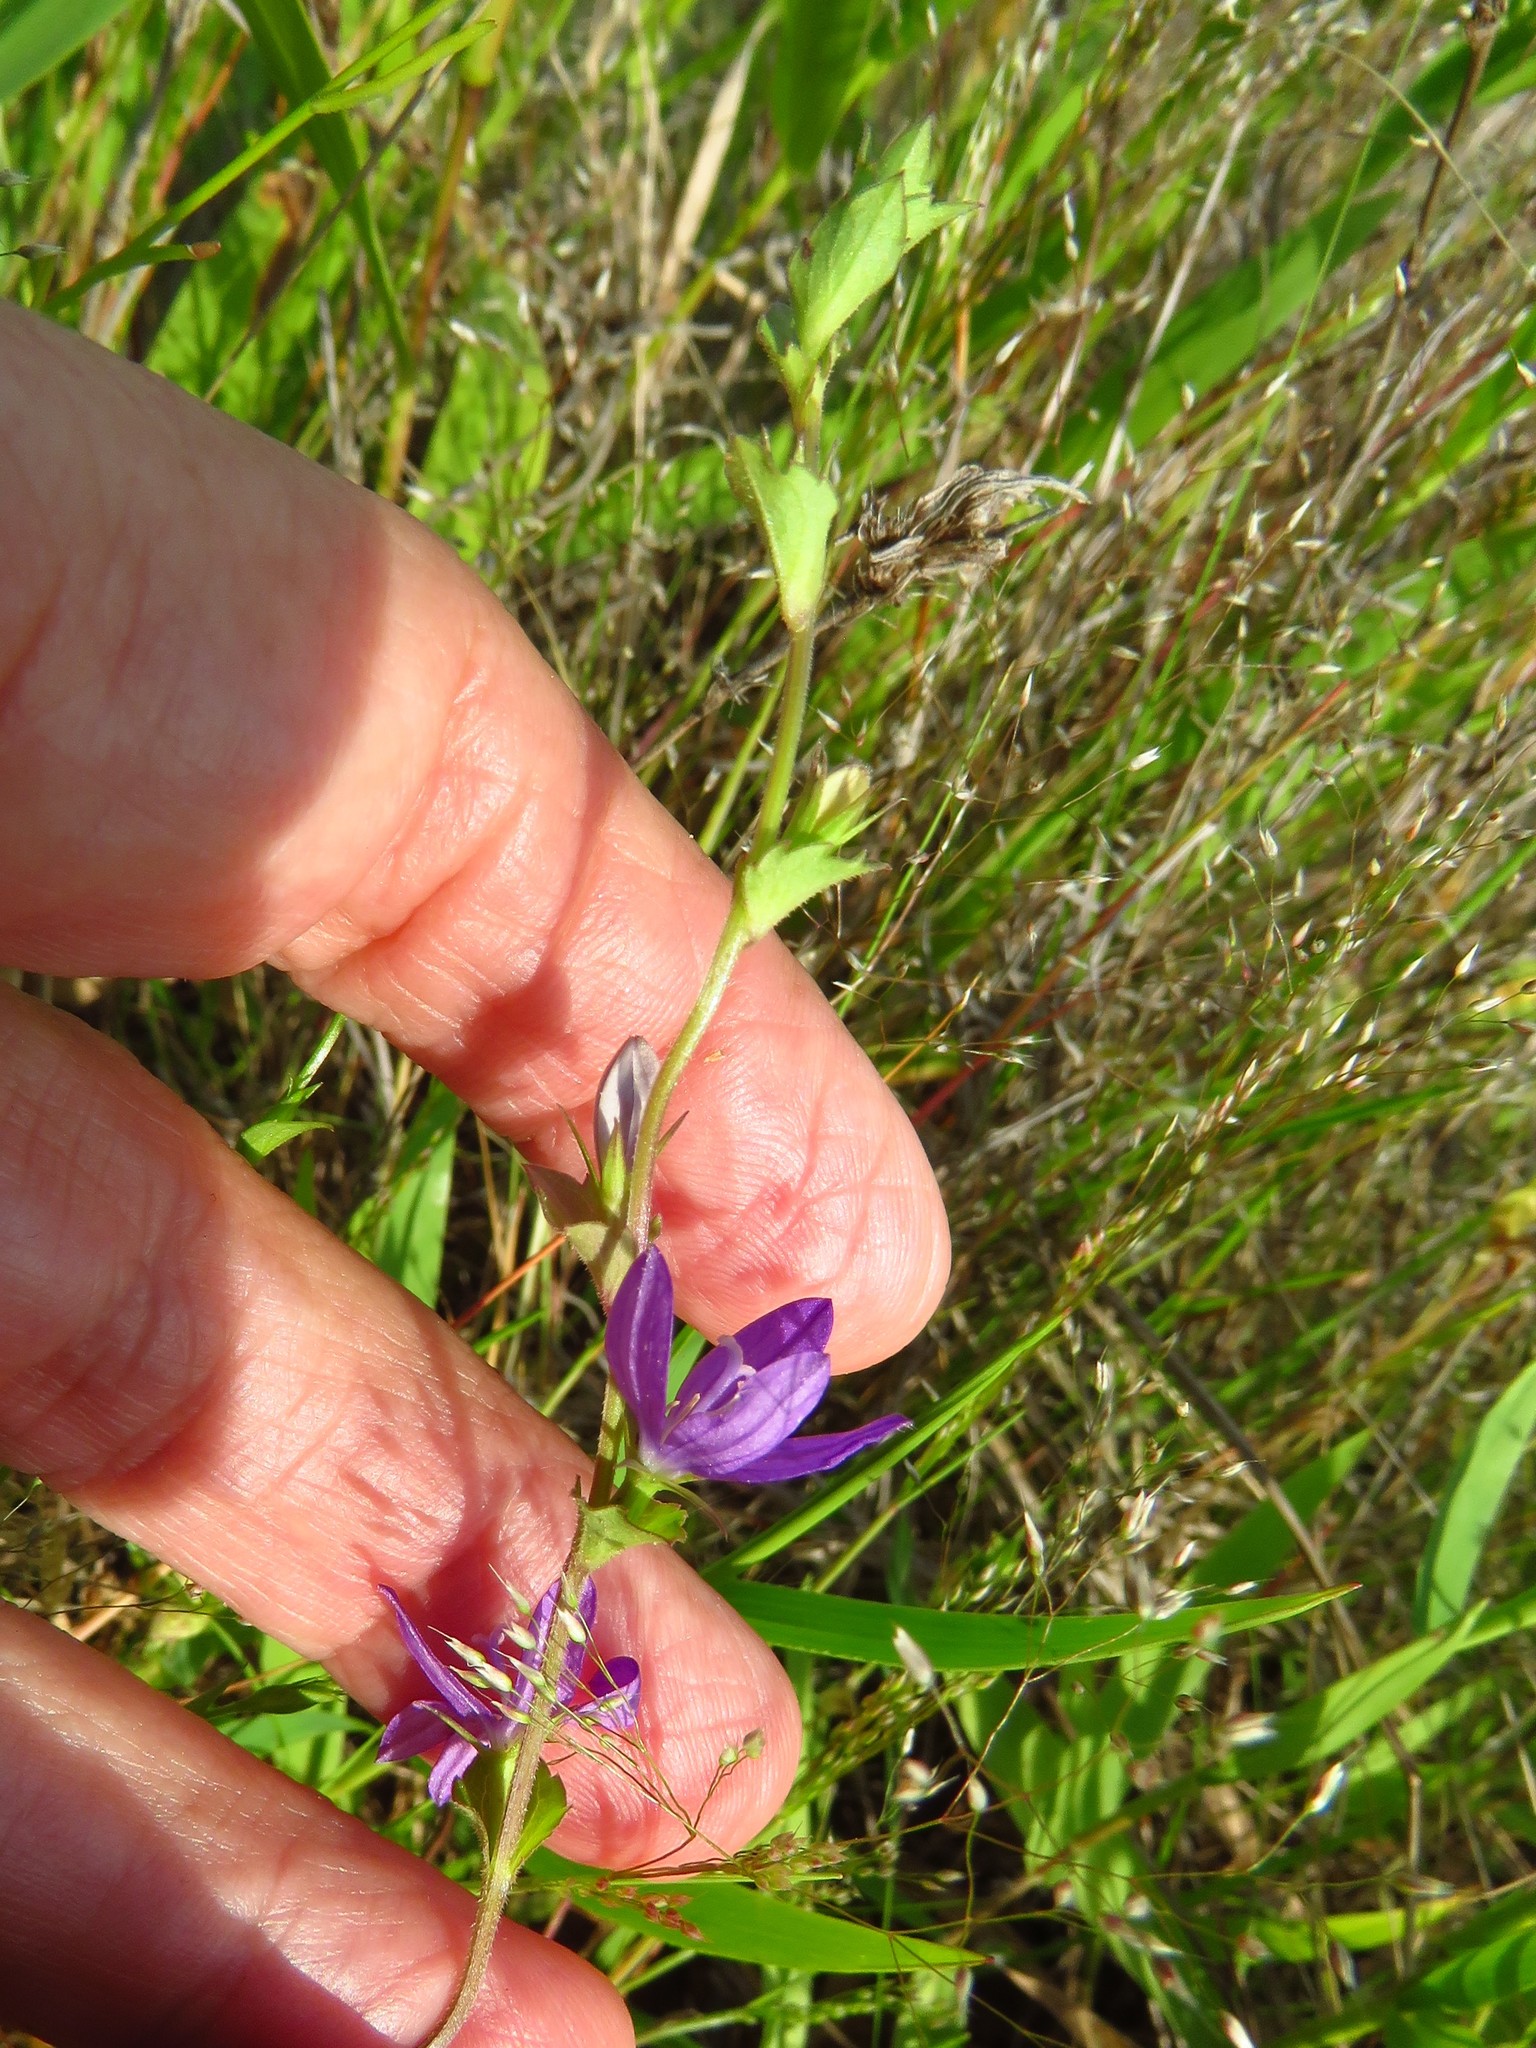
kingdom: Plantae
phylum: Tracheophyta
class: Magnoliopsida
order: Asterales
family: Campanulaceae
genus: Triodanis
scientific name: Triodanis perfoliata
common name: Clasping venus' looking-glass
